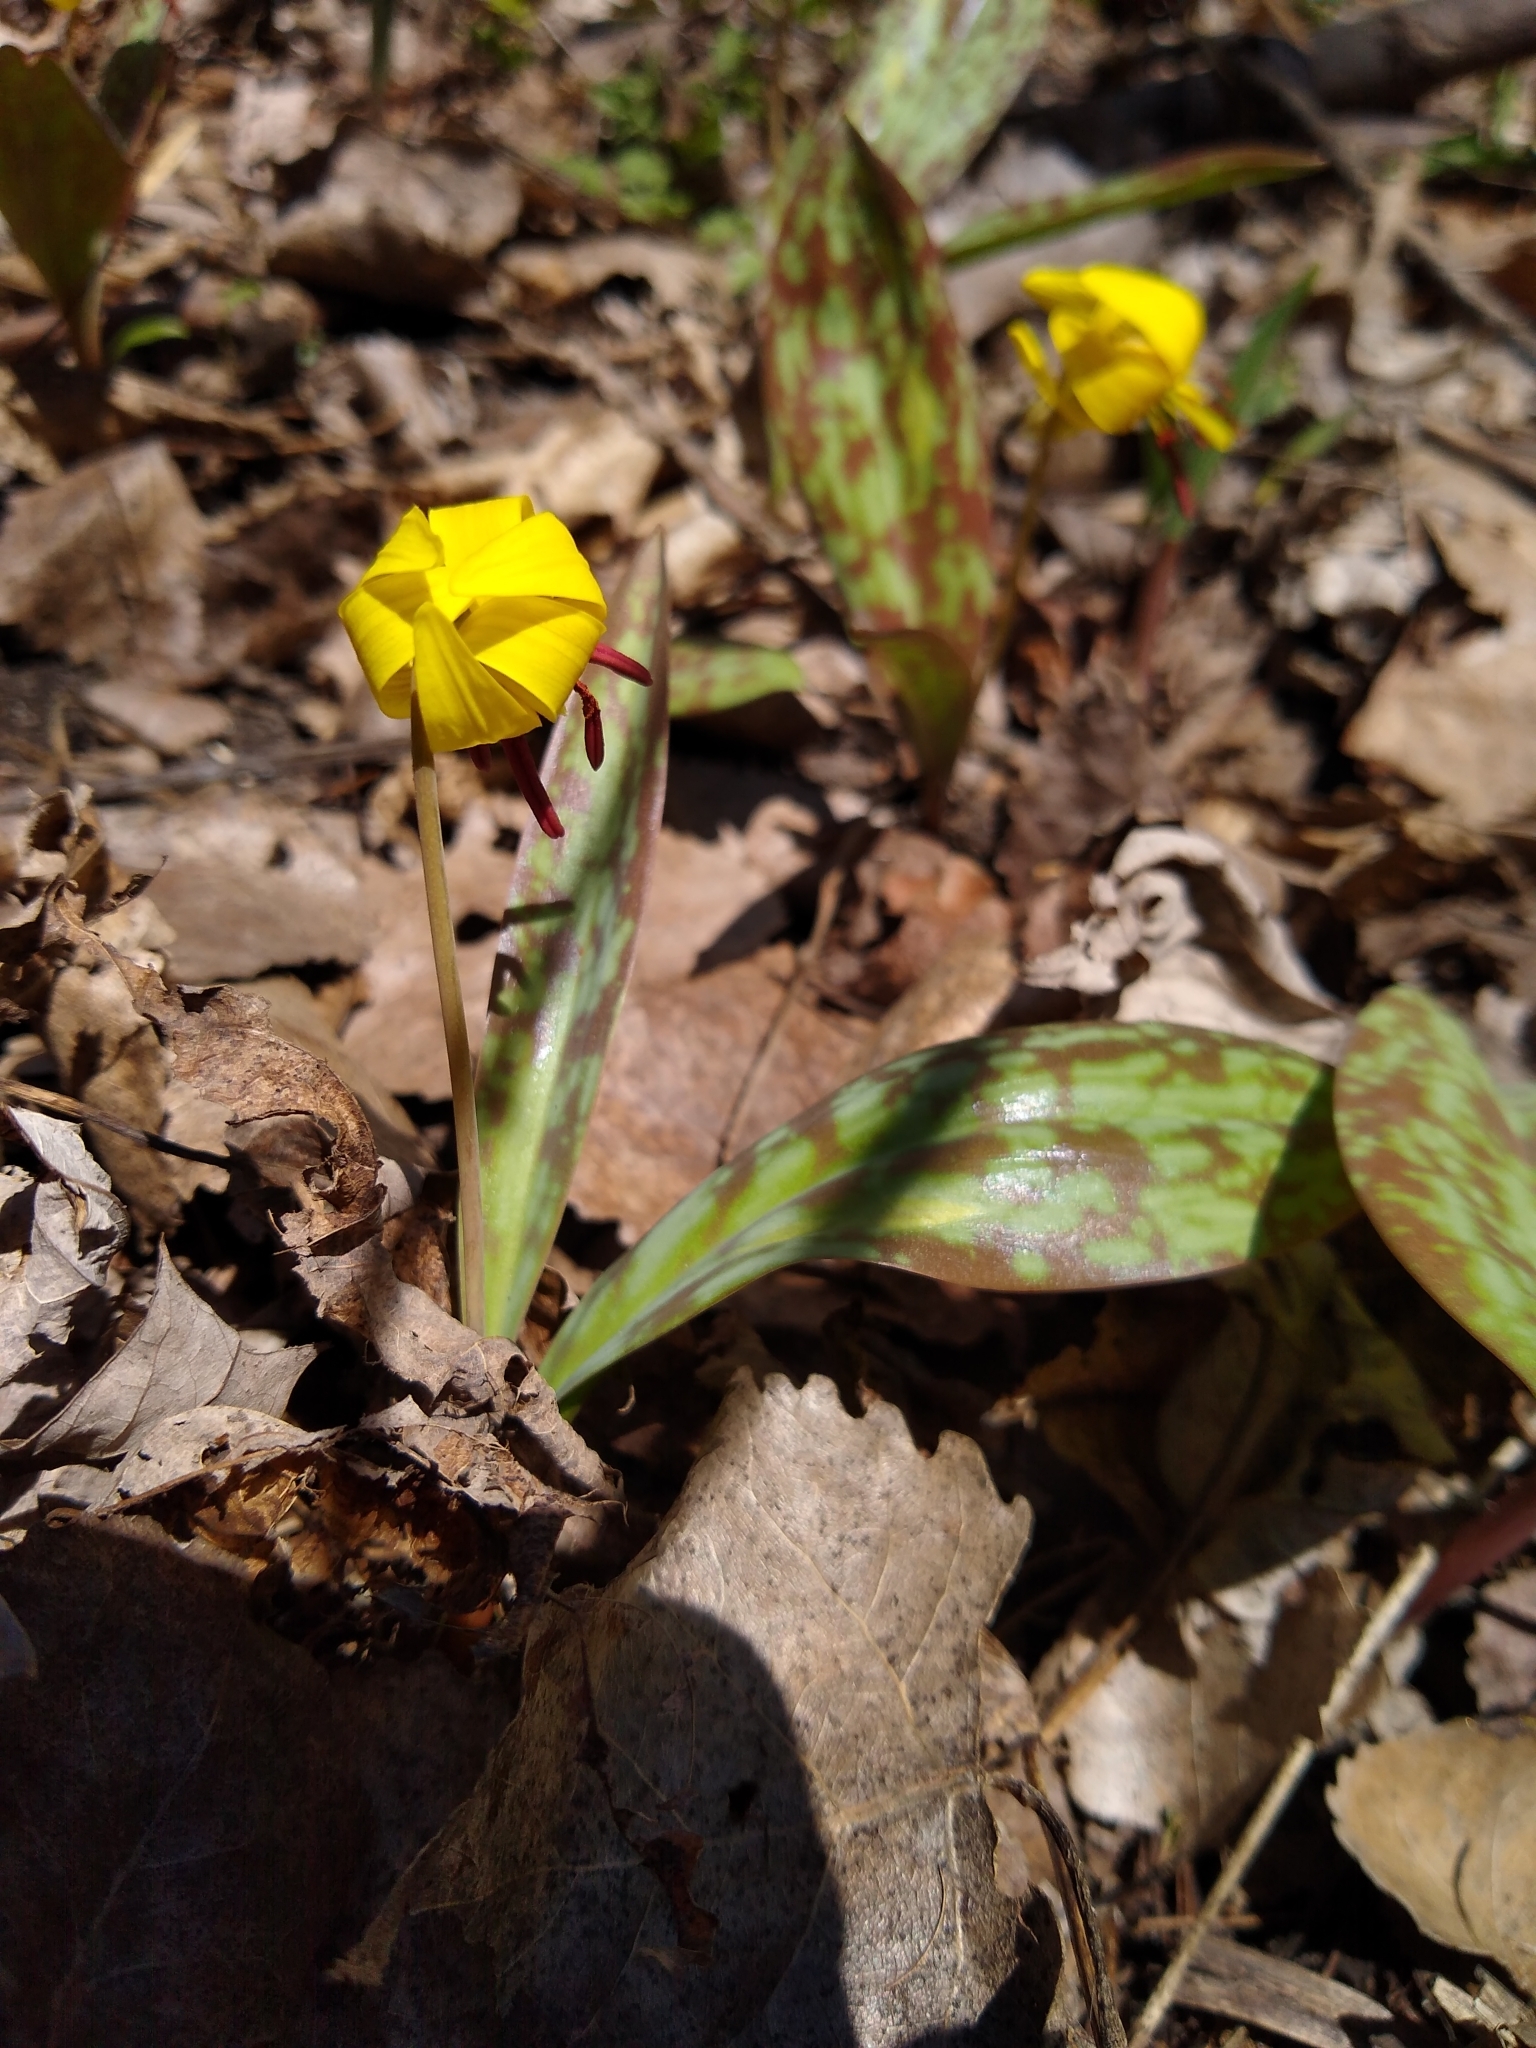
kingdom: Plantae
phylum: Tracheophyta
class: Liliopsida
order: Liliales
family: Liliaceae
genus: Erythronium
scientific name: Erythronium americanum
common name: Yellow adder's-tongue
